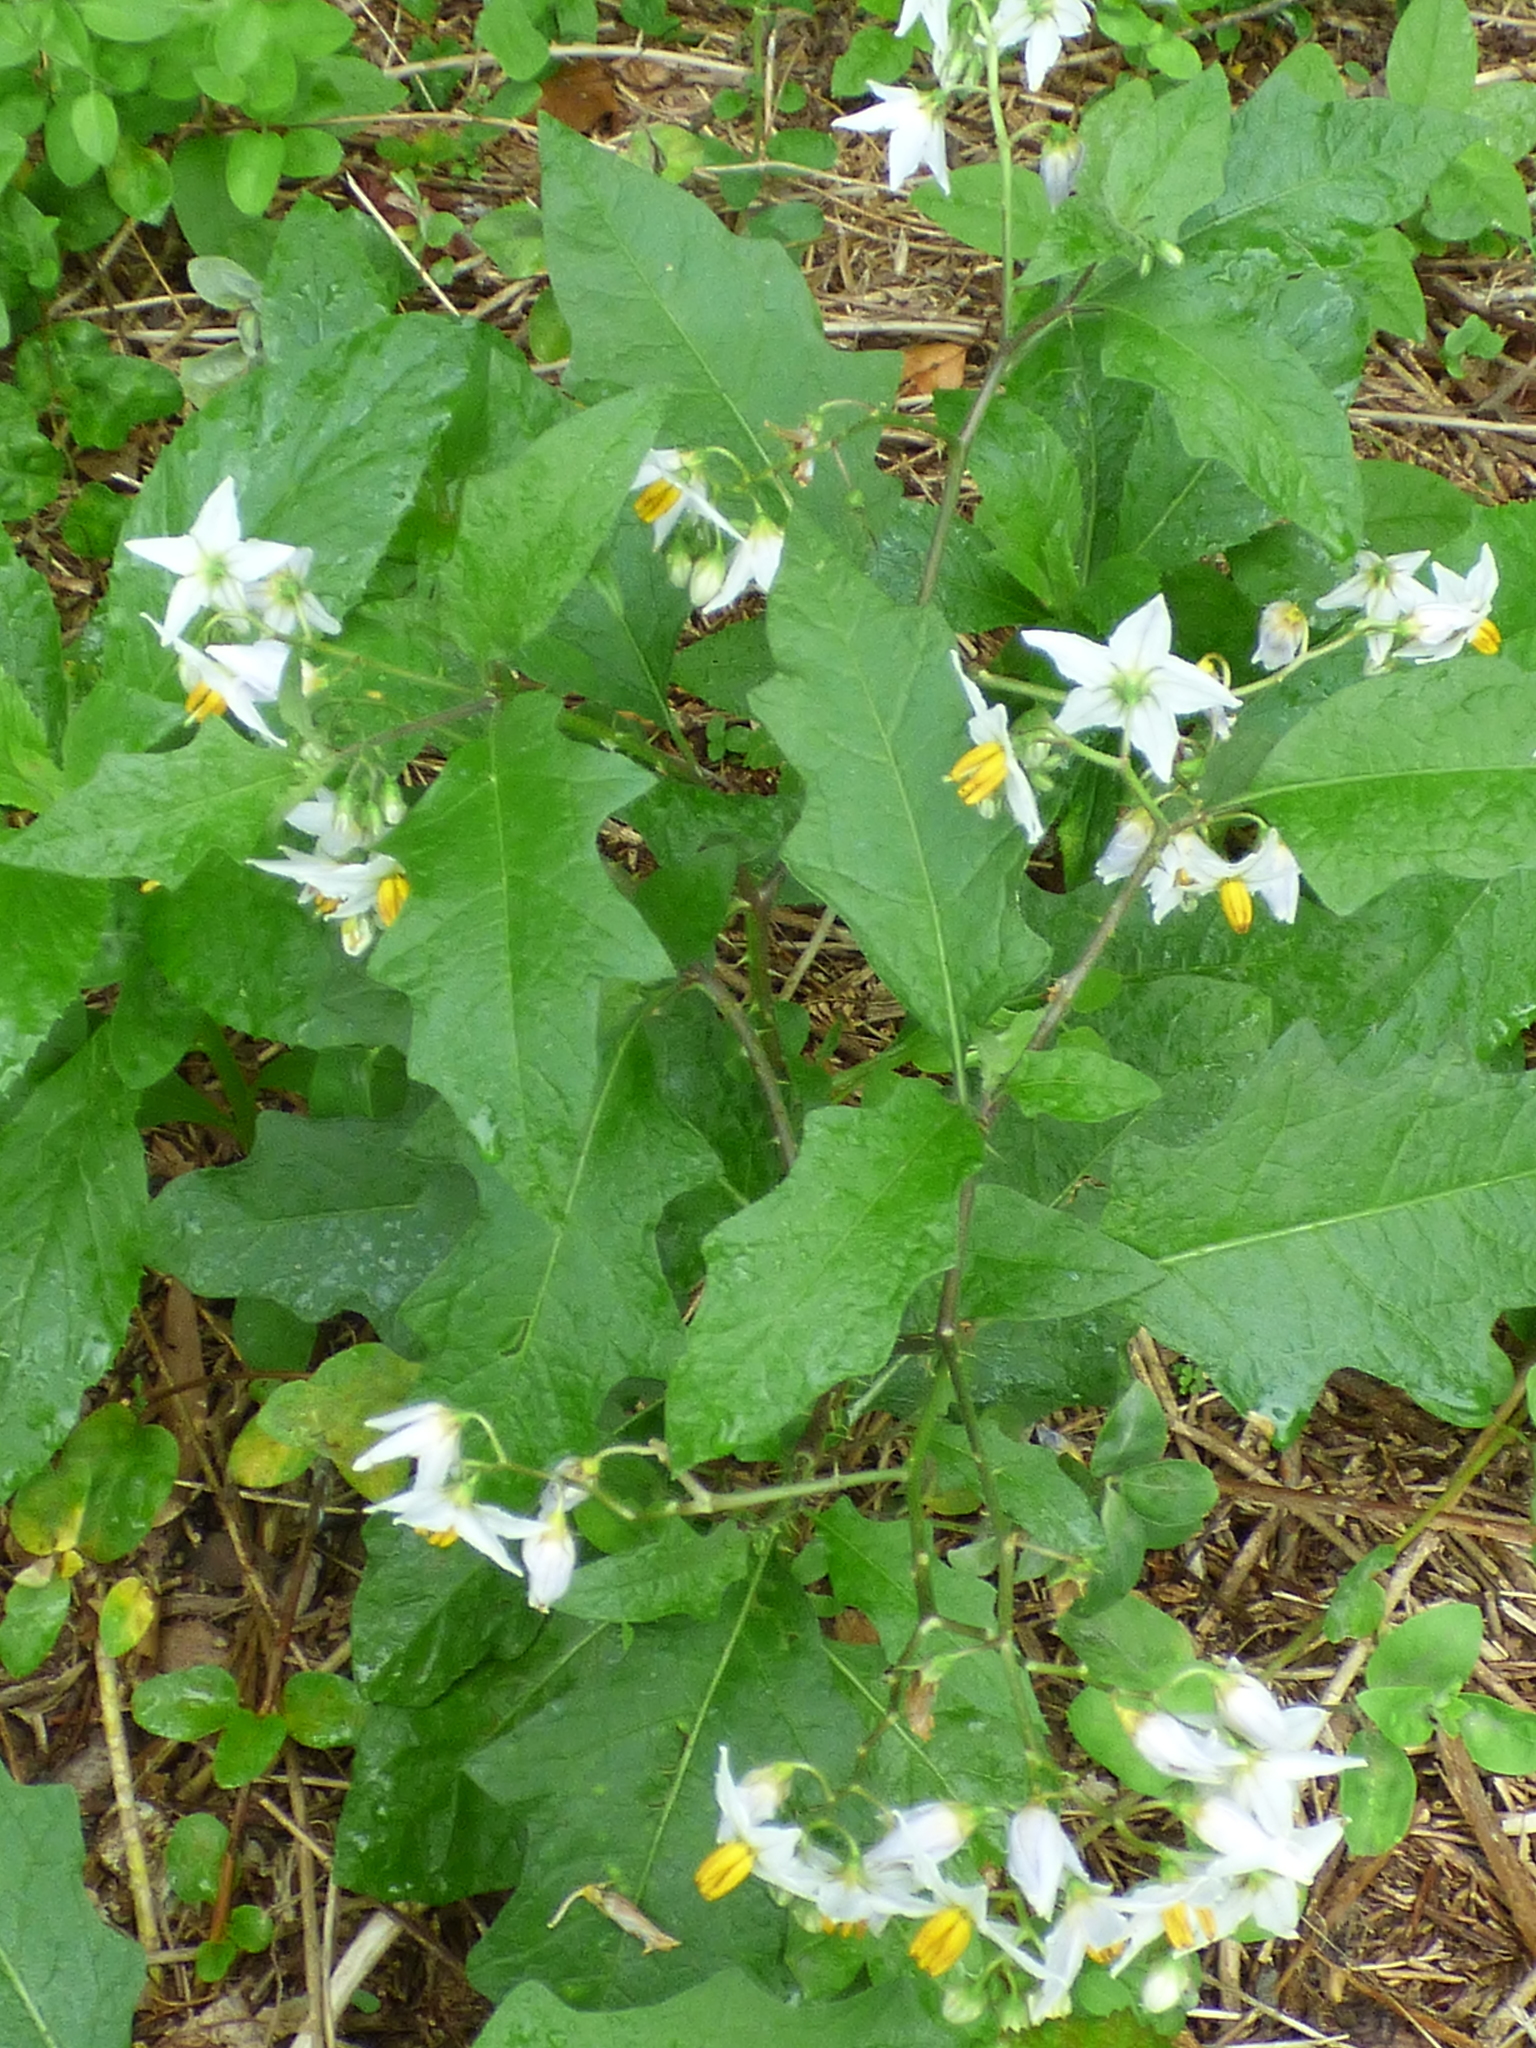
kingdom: Plantae
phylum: Tracheophyta
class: Magnoliopsida
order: Solanales
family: Solanaceae
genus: Solanum
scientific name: Solanum carolinense
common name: Horse-nettle
